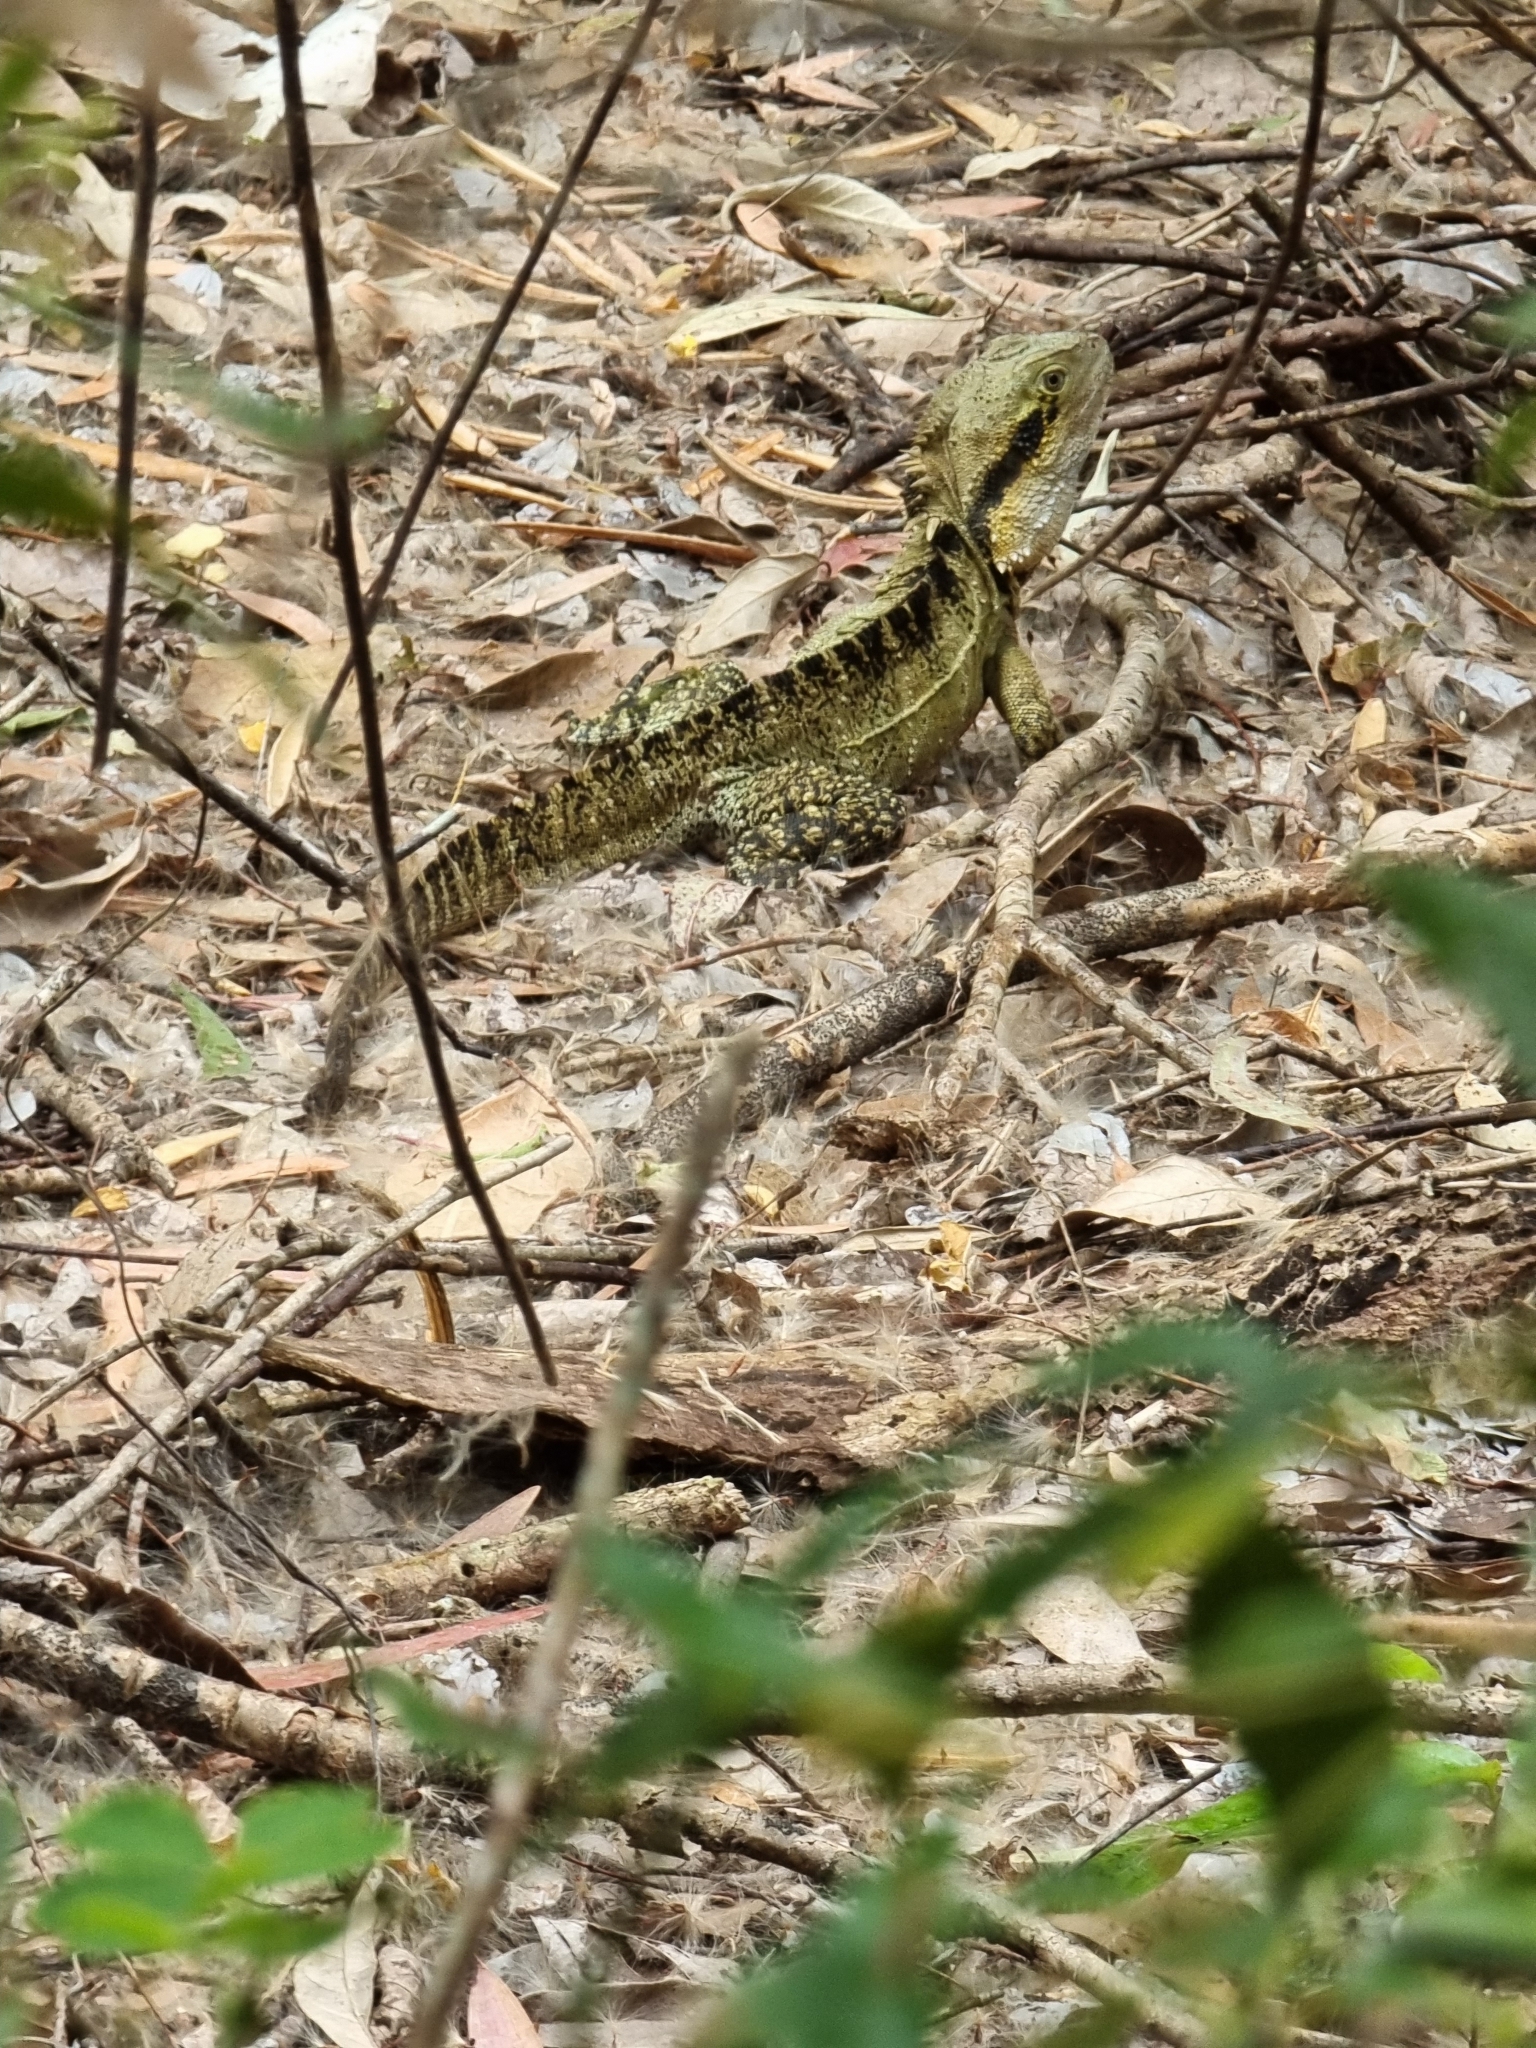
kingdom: Animalia
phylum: Chordata
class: Squamata
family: Agamidae
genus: Intellagama
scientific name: Intellagama lesueurii
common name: Eastern water dragon
